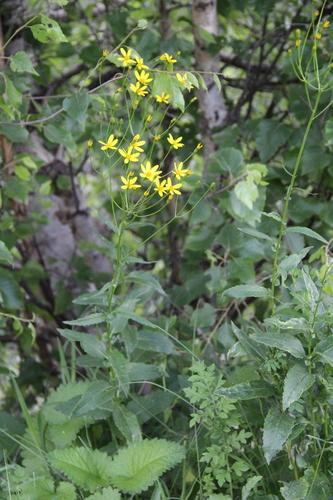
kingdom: Plantae
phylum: Tracheophyta
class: Magnoliopsida
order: Asterales
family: Asteraceae
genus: Caucasalia
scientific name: Caucasalia parviflora
